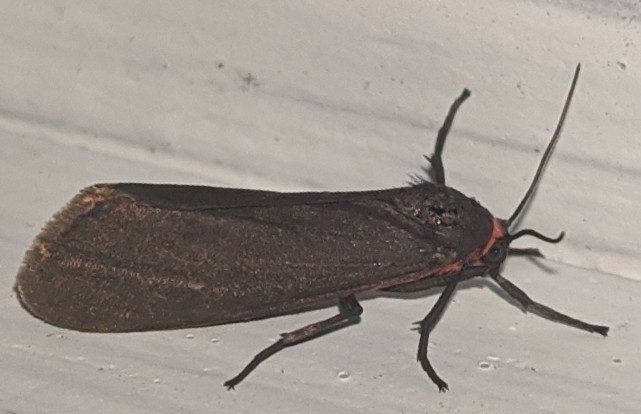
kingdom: Animalia
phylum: Arthropoda
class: Insecta
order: Lepidoptera
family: Erebidae
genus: Virbia
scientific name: Virbia laeta
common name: Joyful holomelina moth
